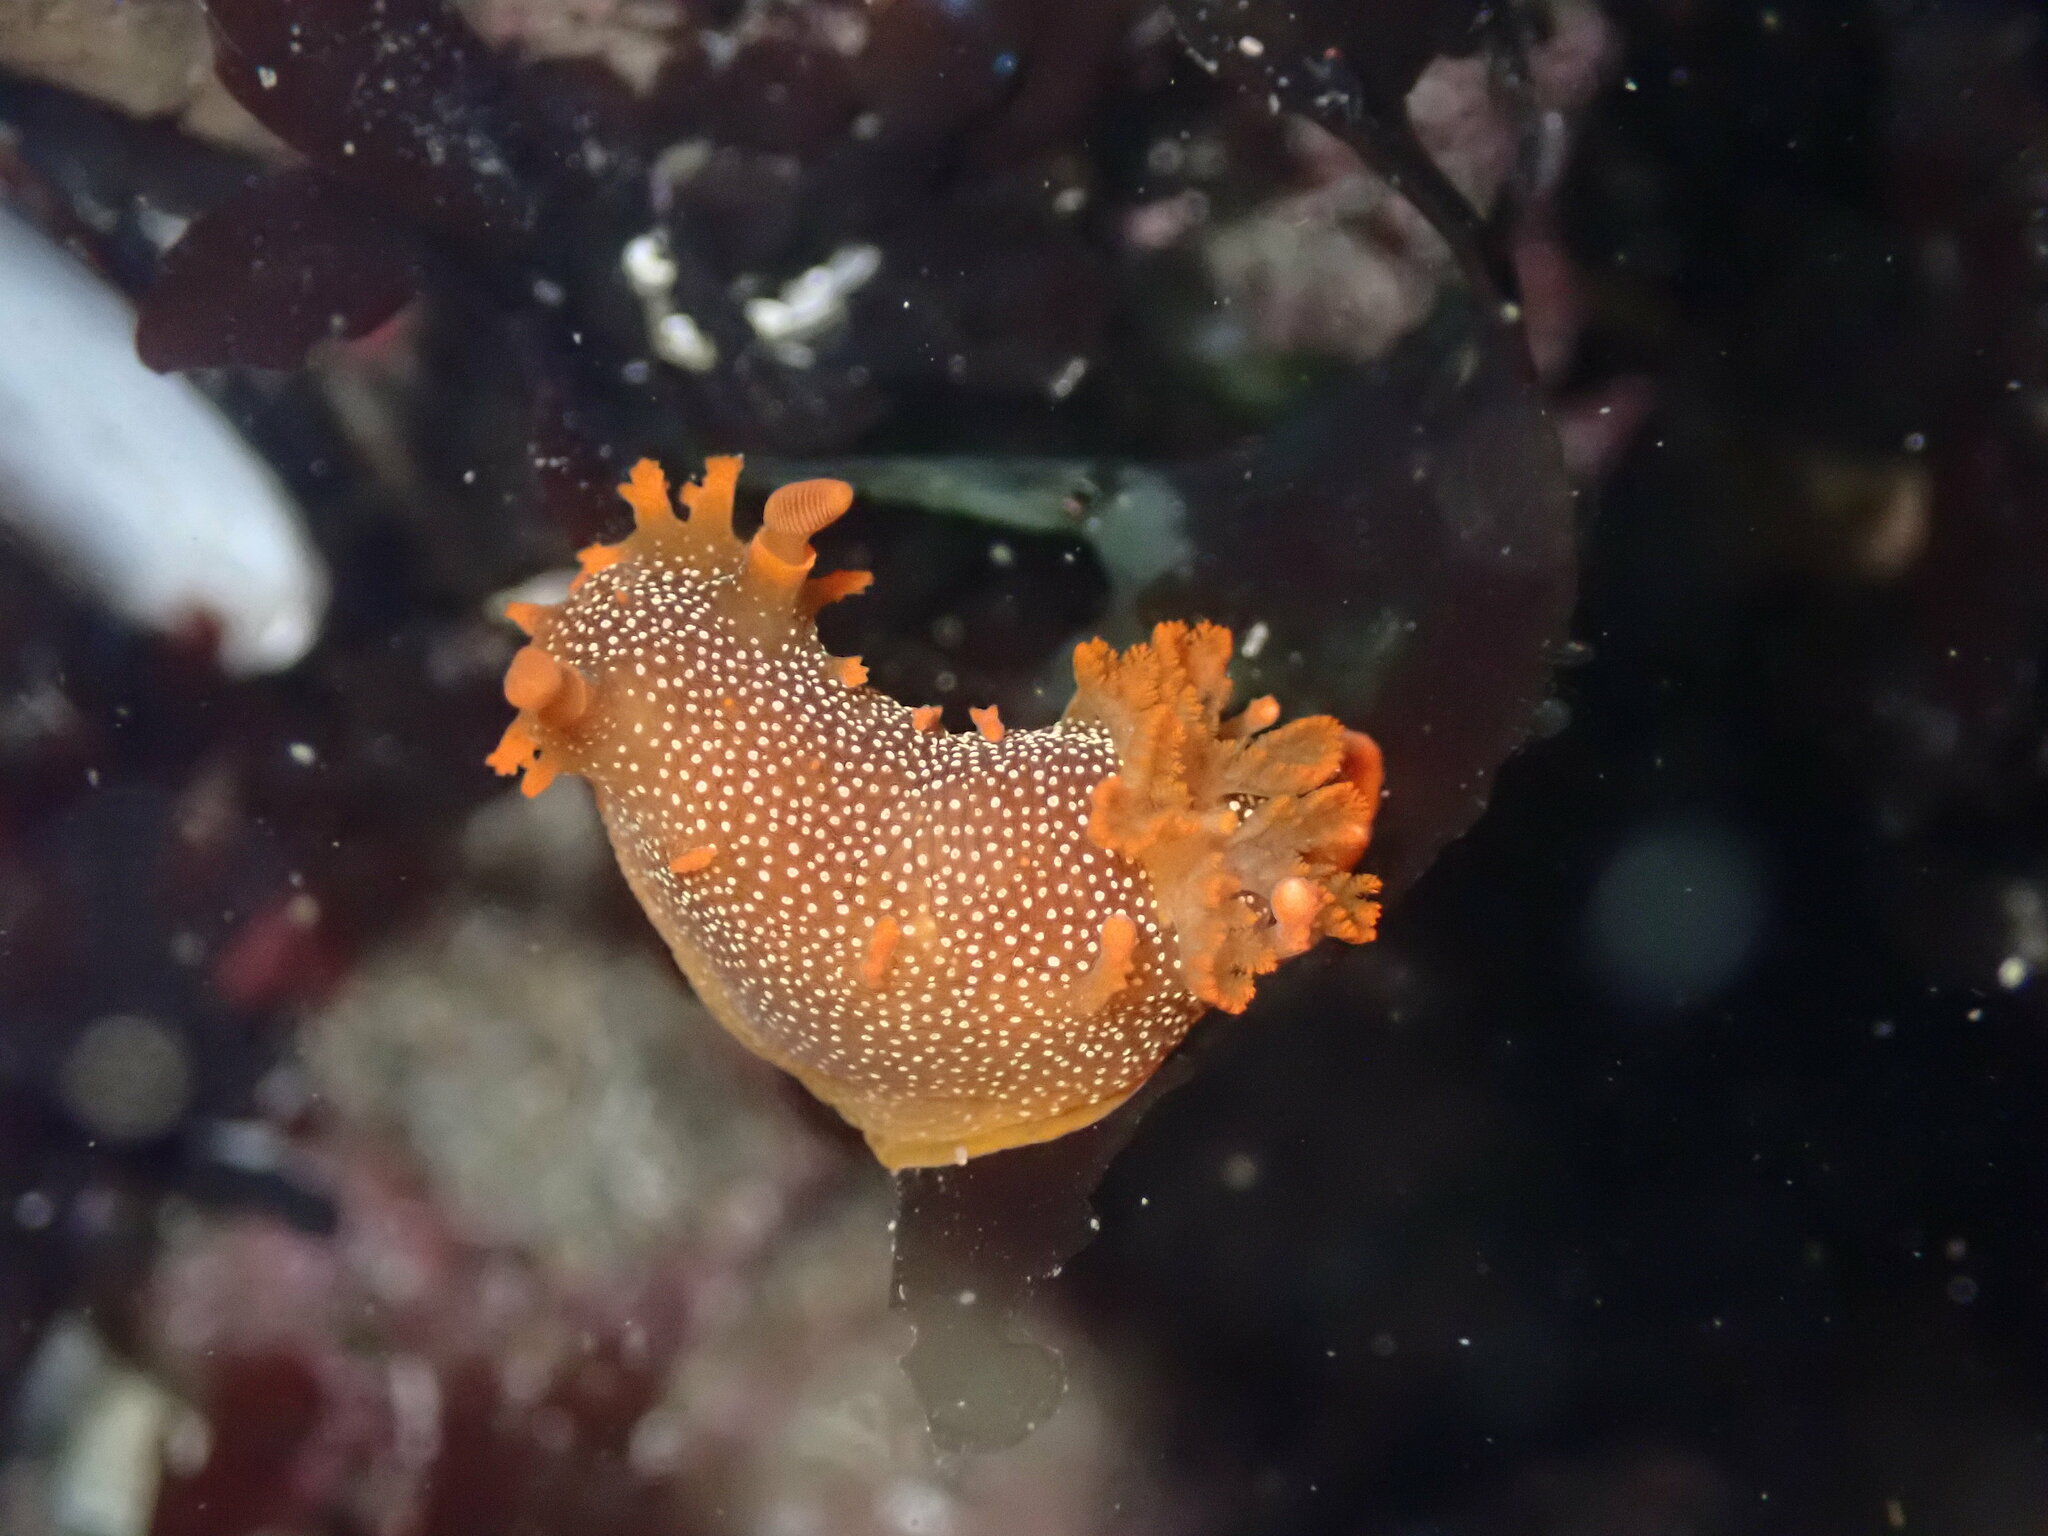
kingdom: Animalia
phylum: Mollusca
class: Gastropoda
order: Nudibranchia
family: Polyceridae
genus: Triopha
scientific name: Triopha maculata
